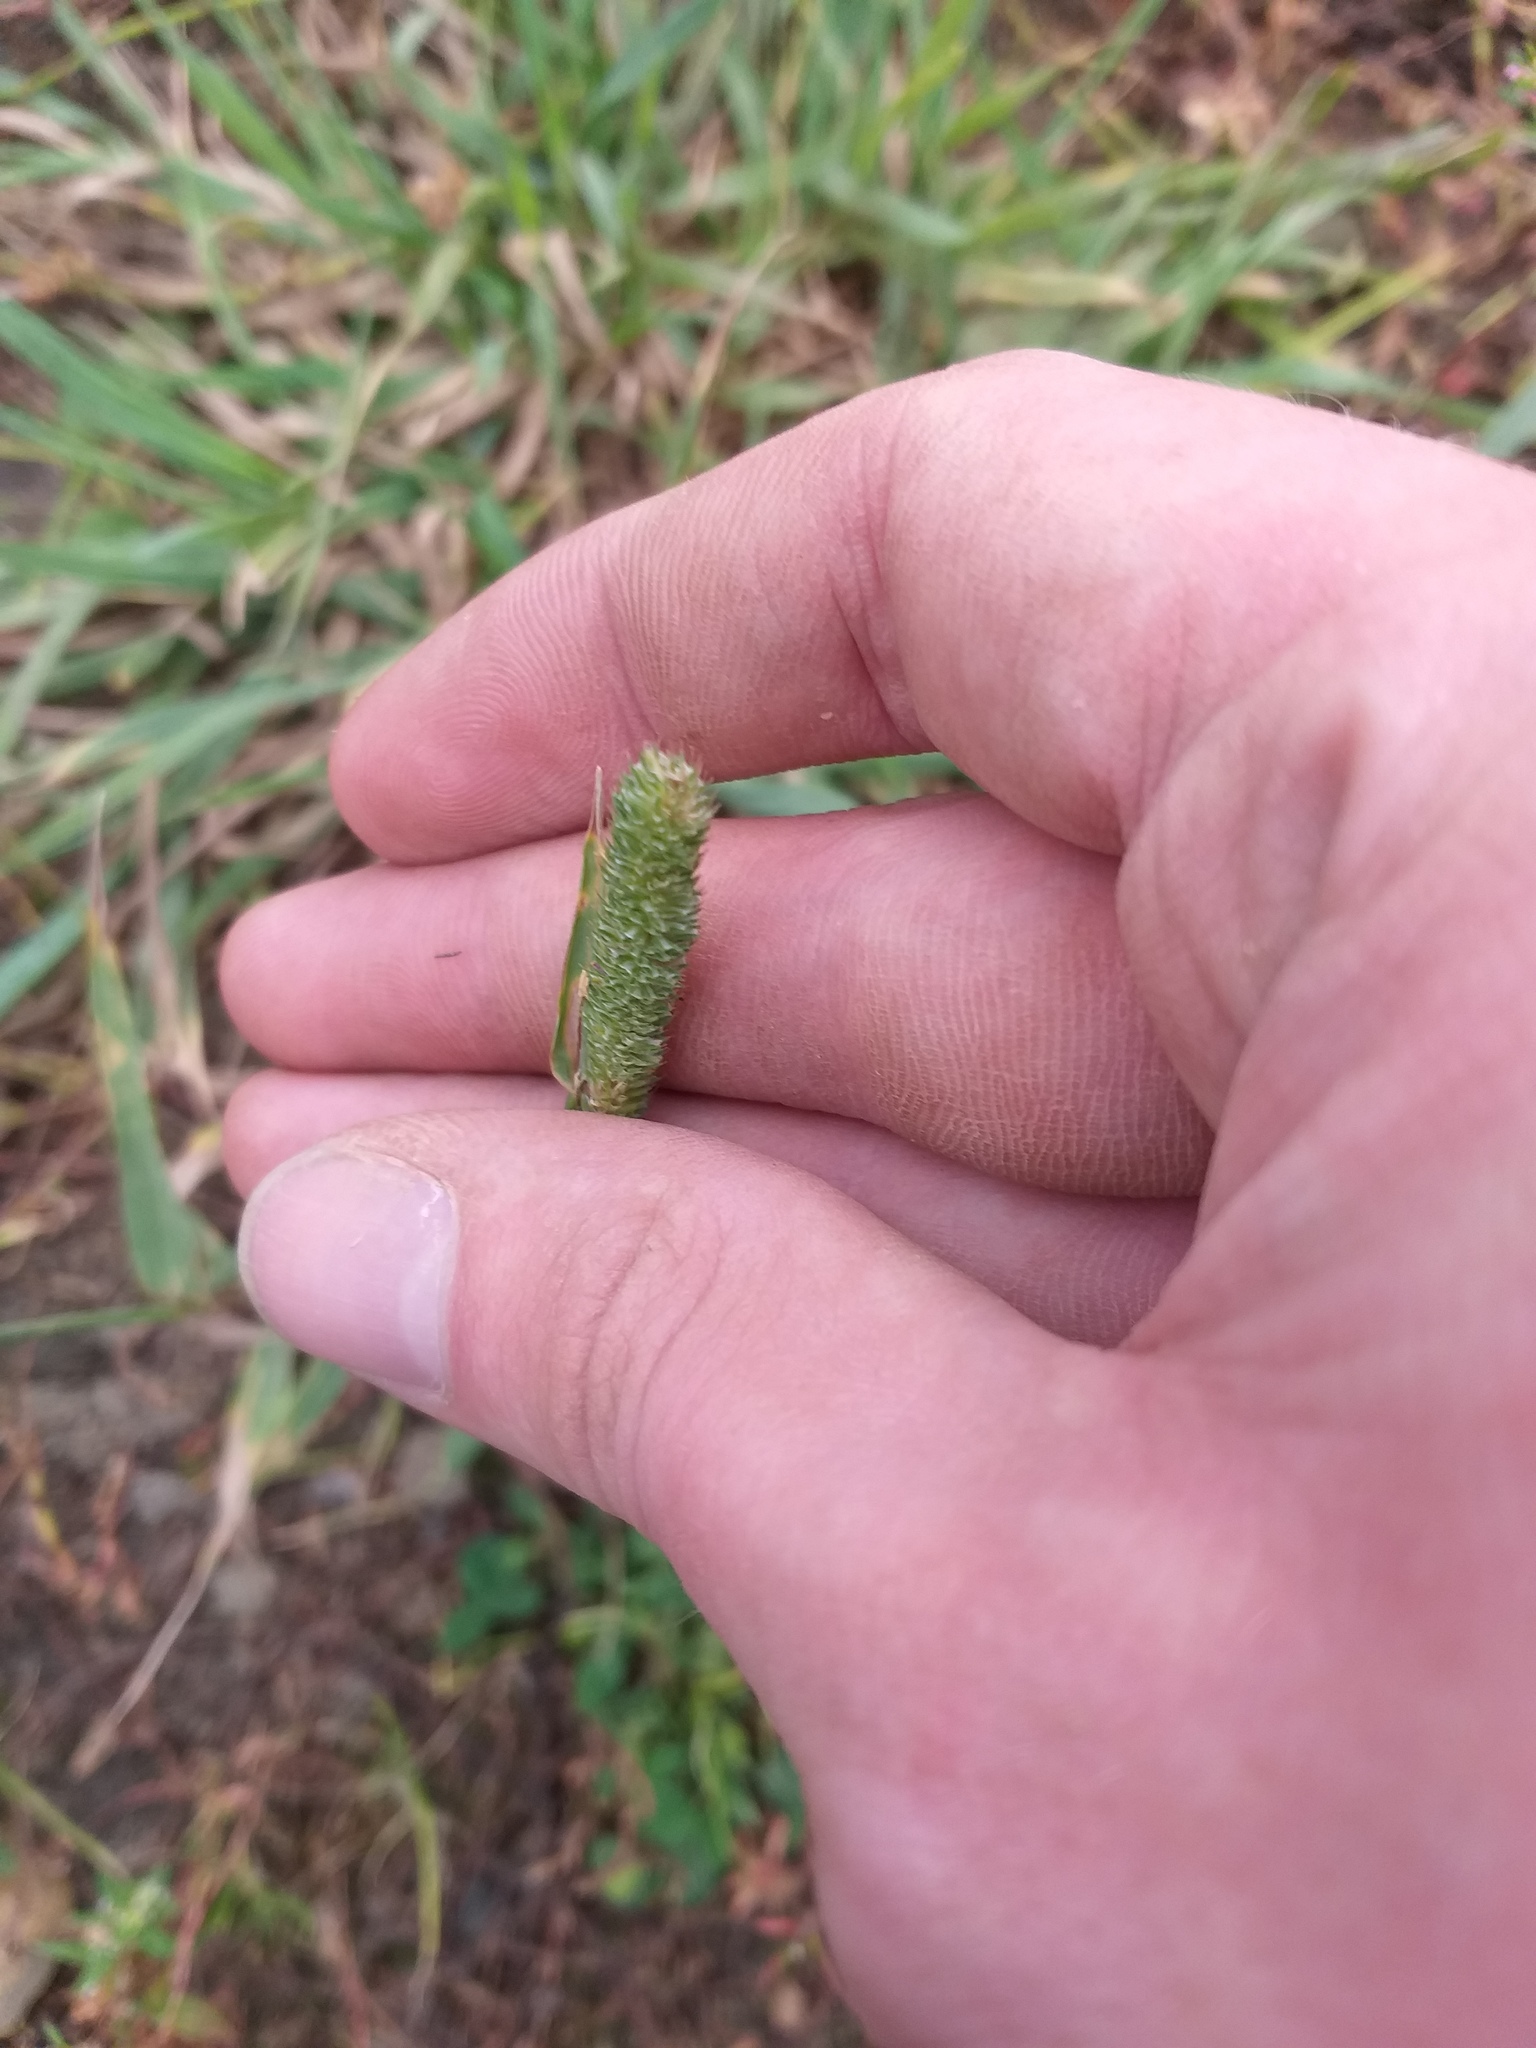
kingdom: Plantae
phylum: Tracheophyta
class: Liliopsida
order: Poales
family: Poaceae
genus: Phleum
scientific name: Phleum pratense
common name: Timothy grass
